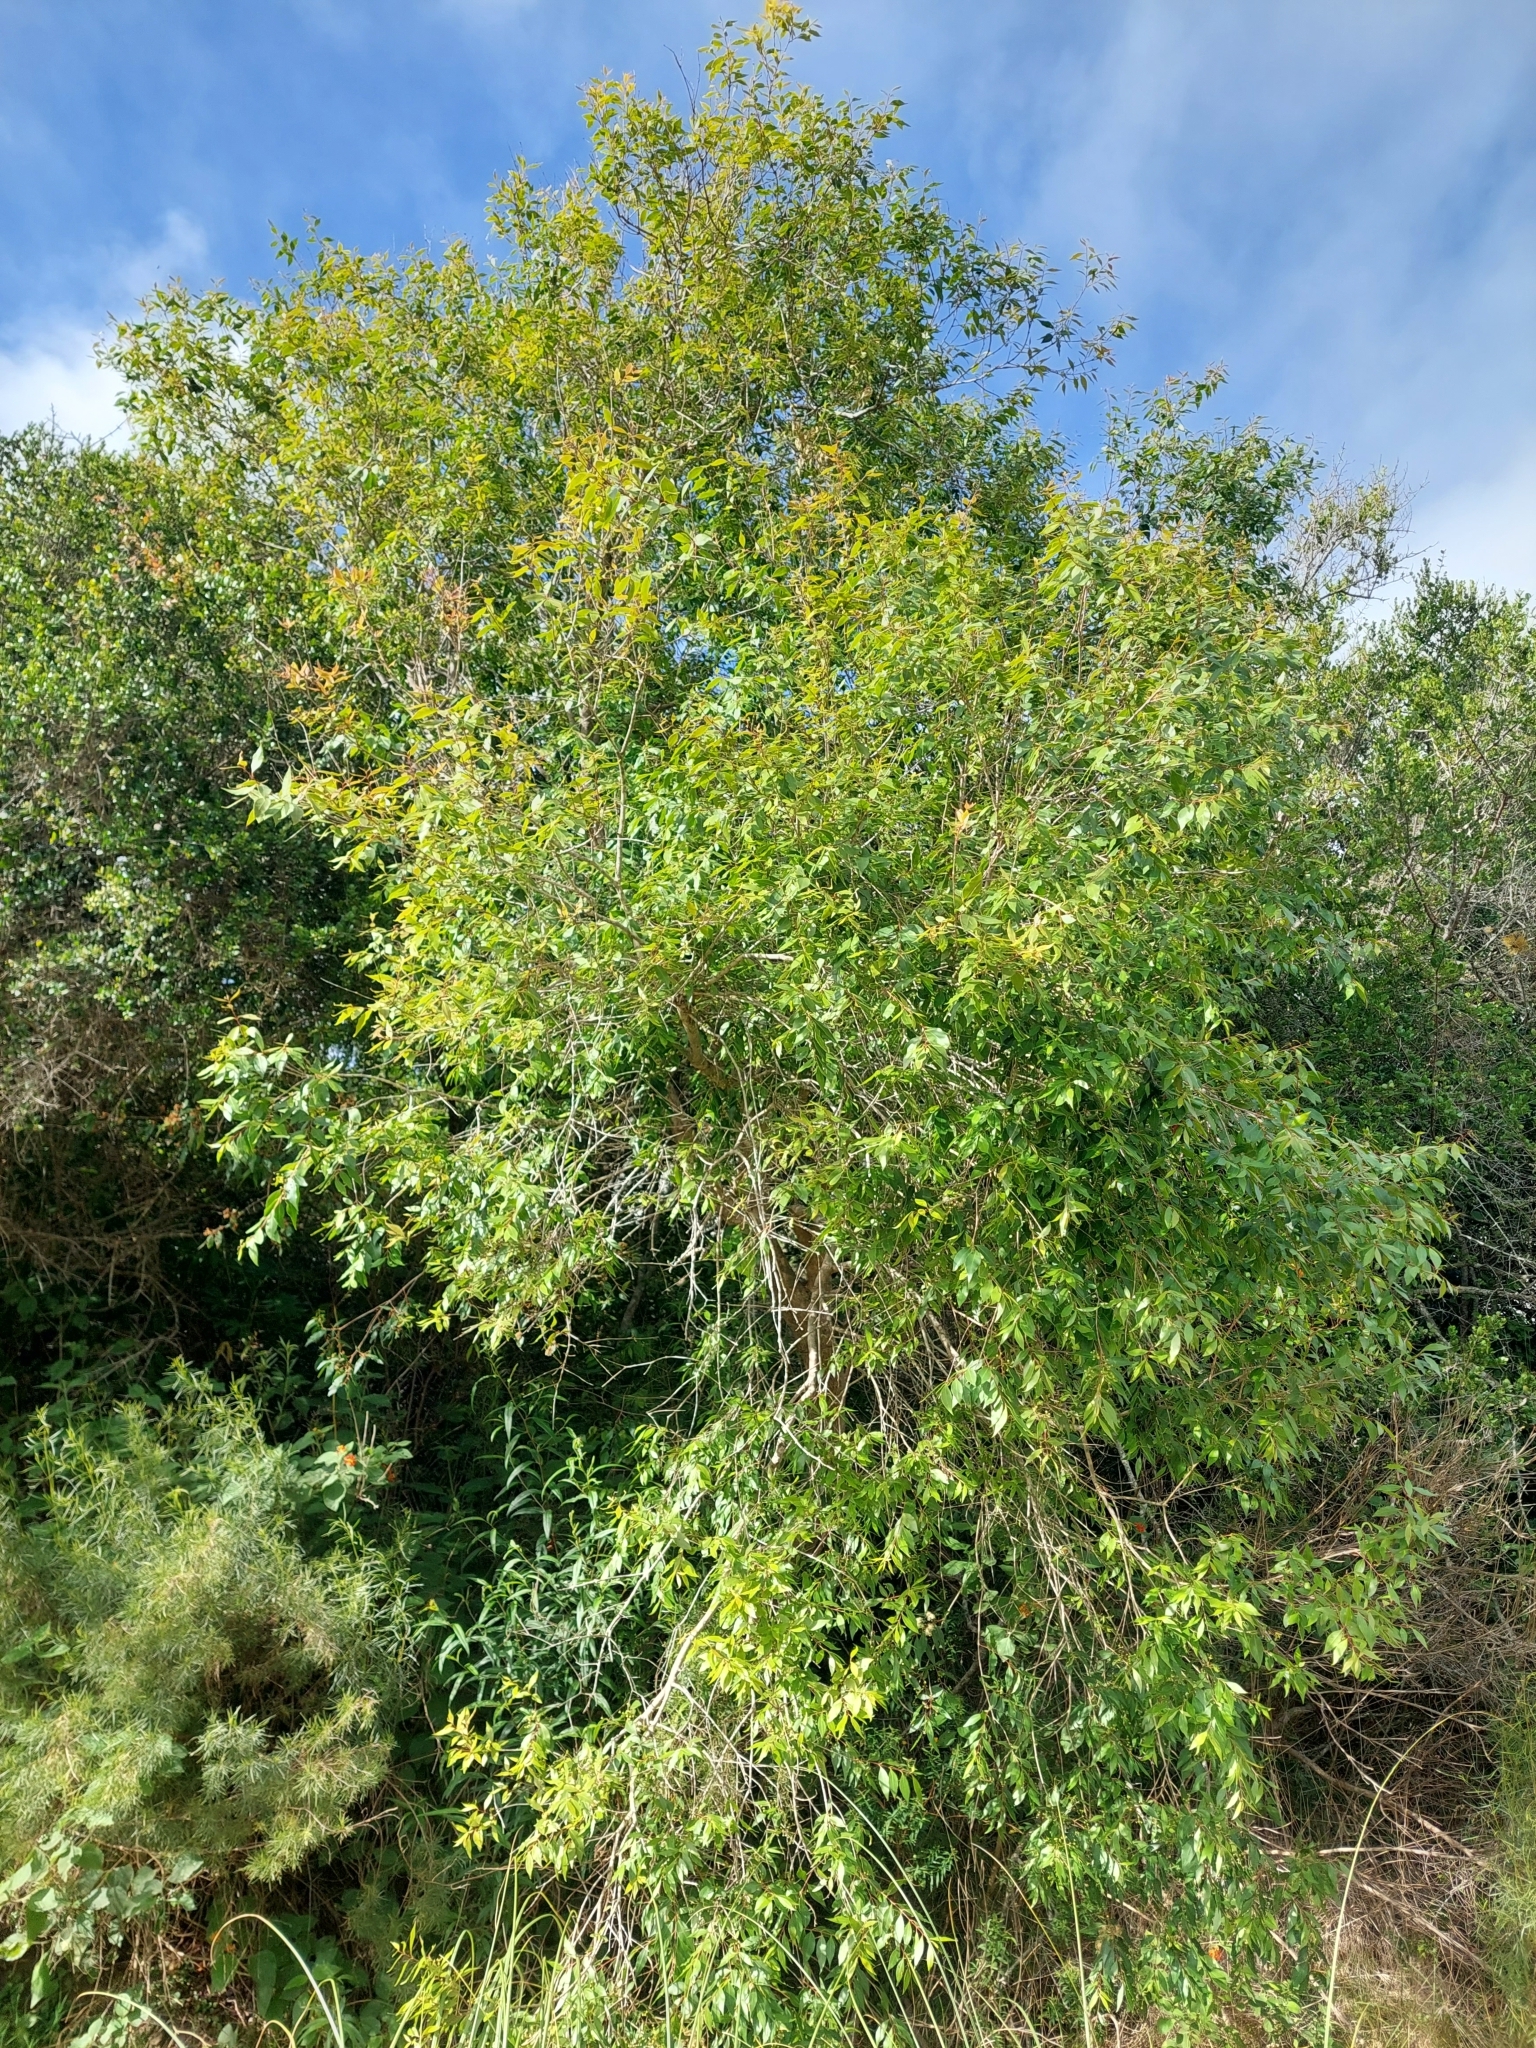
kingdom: Plantae
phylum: Tracheophyta
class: Magnoliopsida
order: Myrtales
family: Myrtaceae
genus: Blepharocalyx
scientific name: Blepharocalyx salicifolius
